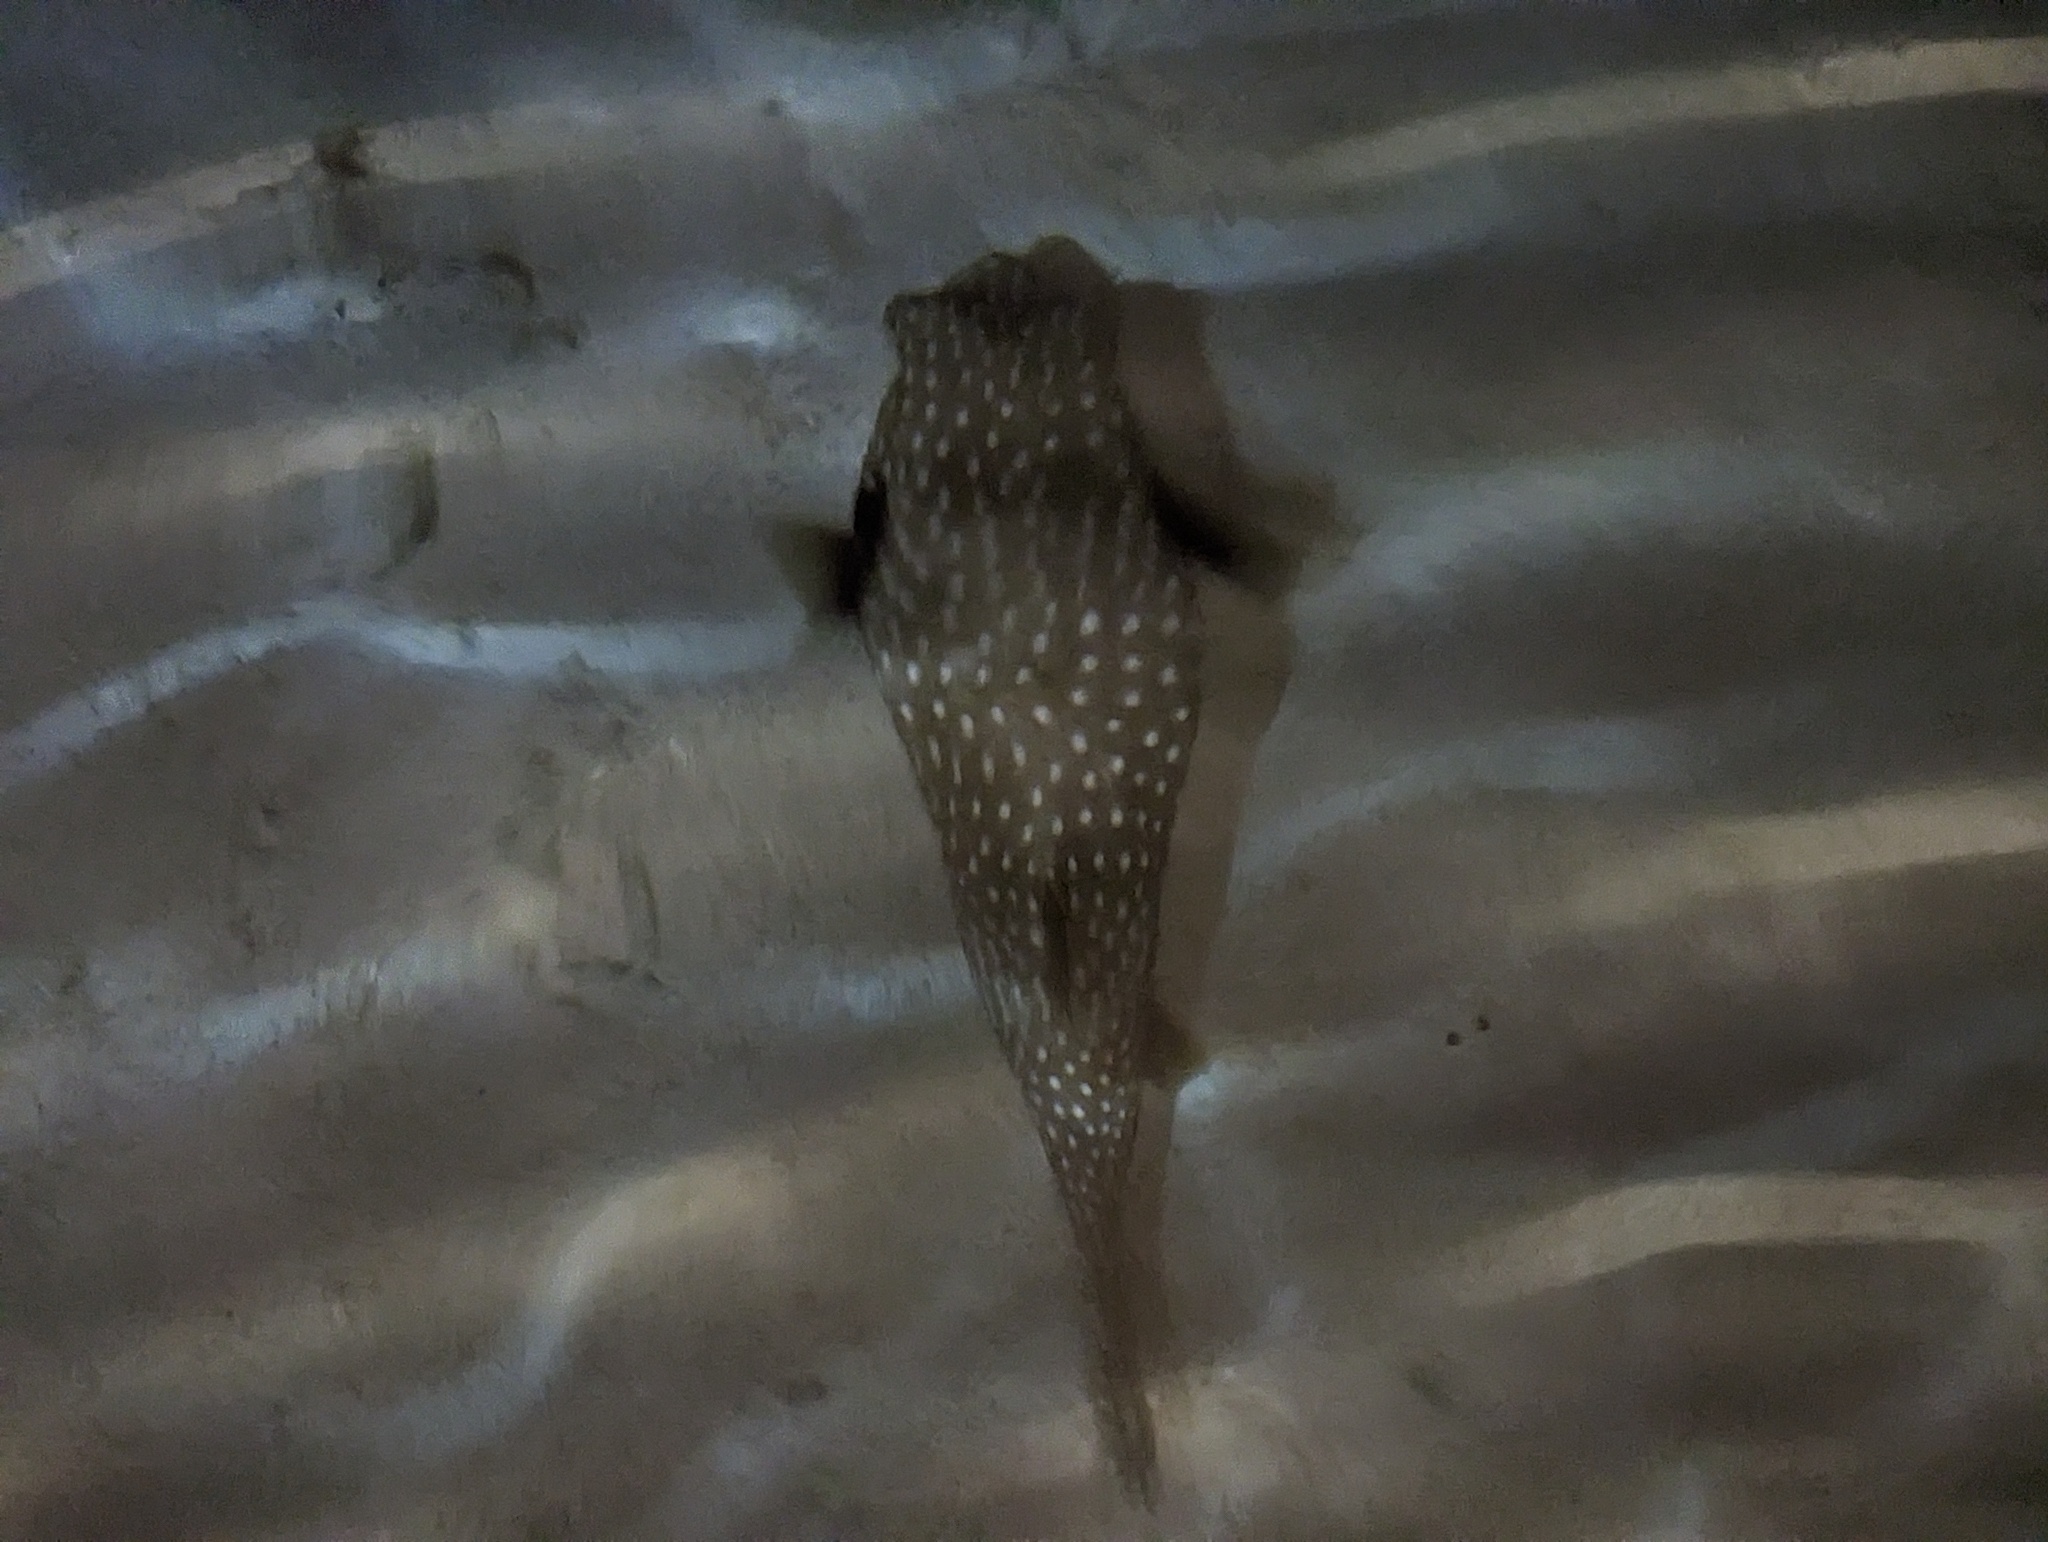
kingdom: Animalia
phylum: Chordata
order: Tetraodontiformes
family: Tetraodontidae
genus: Arothron
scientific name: Arothron hispidus
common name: Stripebelly puffer
